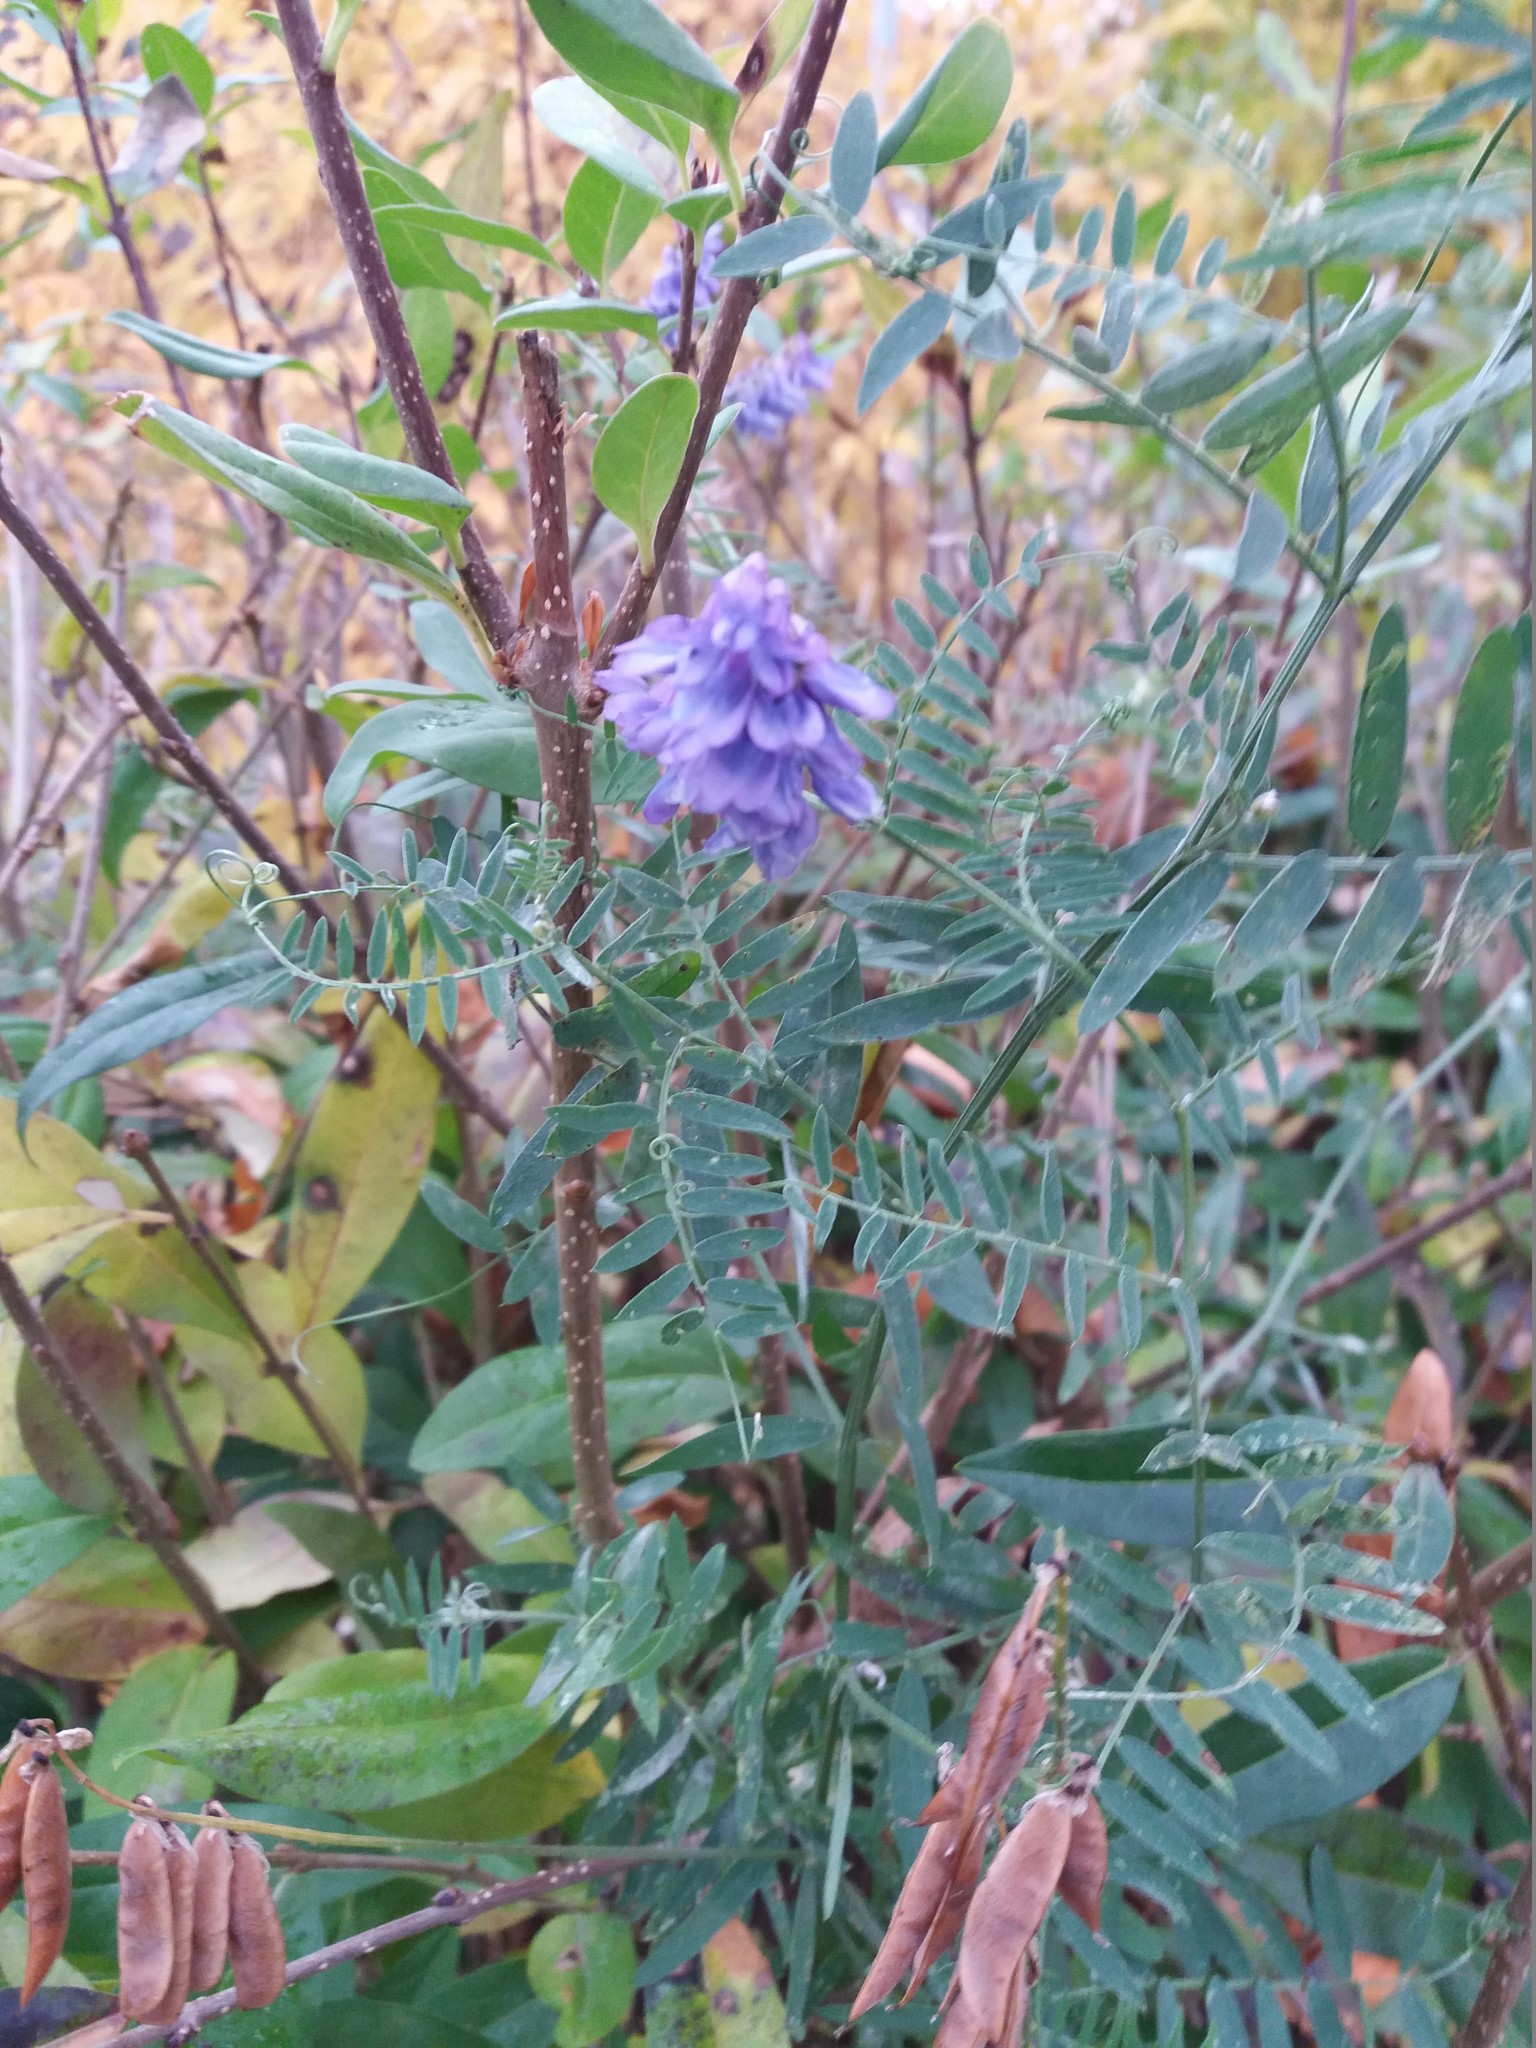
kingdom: Plantae
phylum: Tracheophyta
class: Magnoliopsida
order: Fabales
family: Fabaceae
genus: Vicia
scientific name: Vicia cracca
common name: Bird vetch
